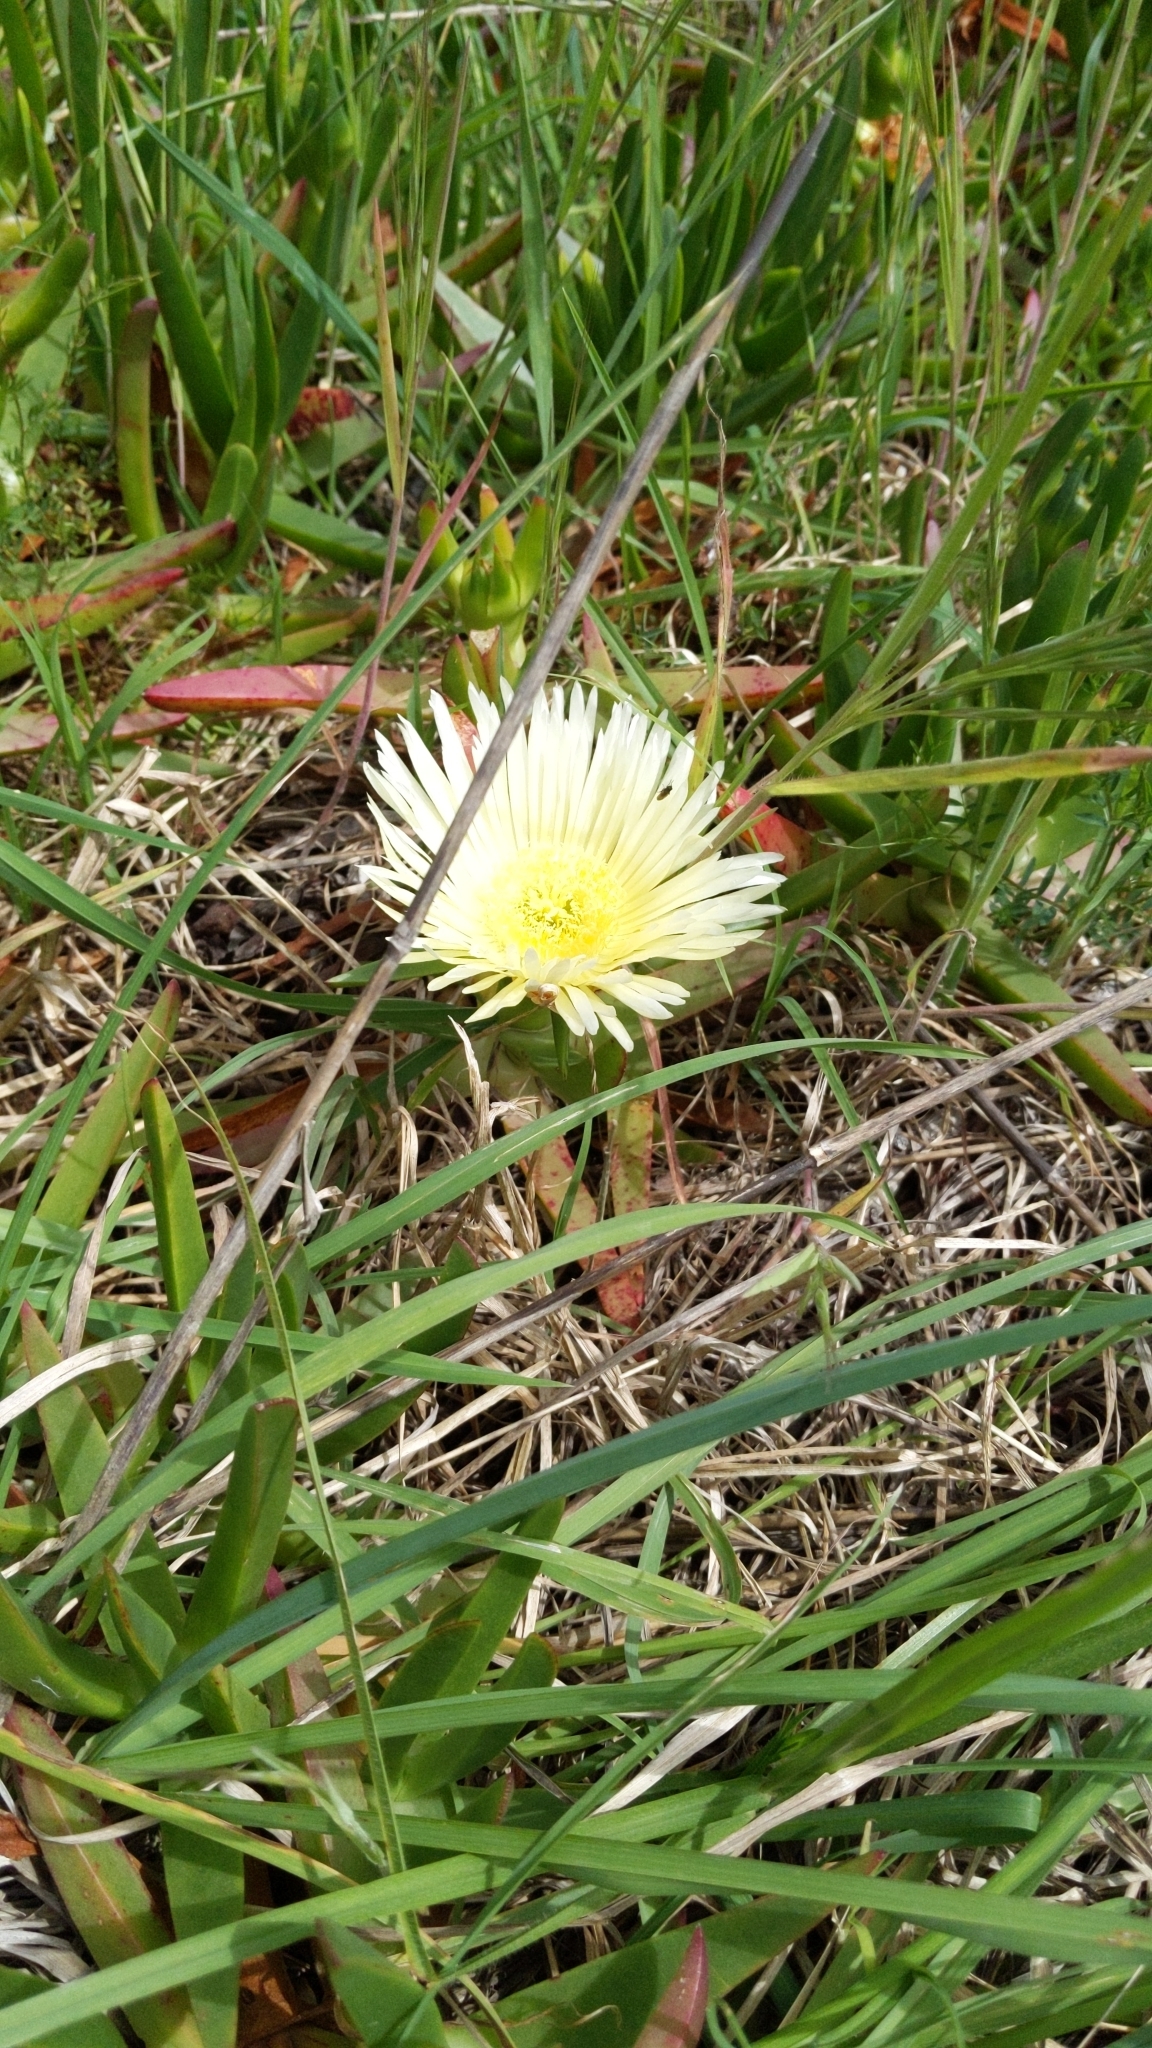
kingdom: Plantae
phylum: Tracheophyta
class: Magnoliopsida
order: Caryophyllales
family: Aizoaceae
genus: Carpobrotus
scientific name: Carpobrotus edulis
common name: Hottentot-fig
